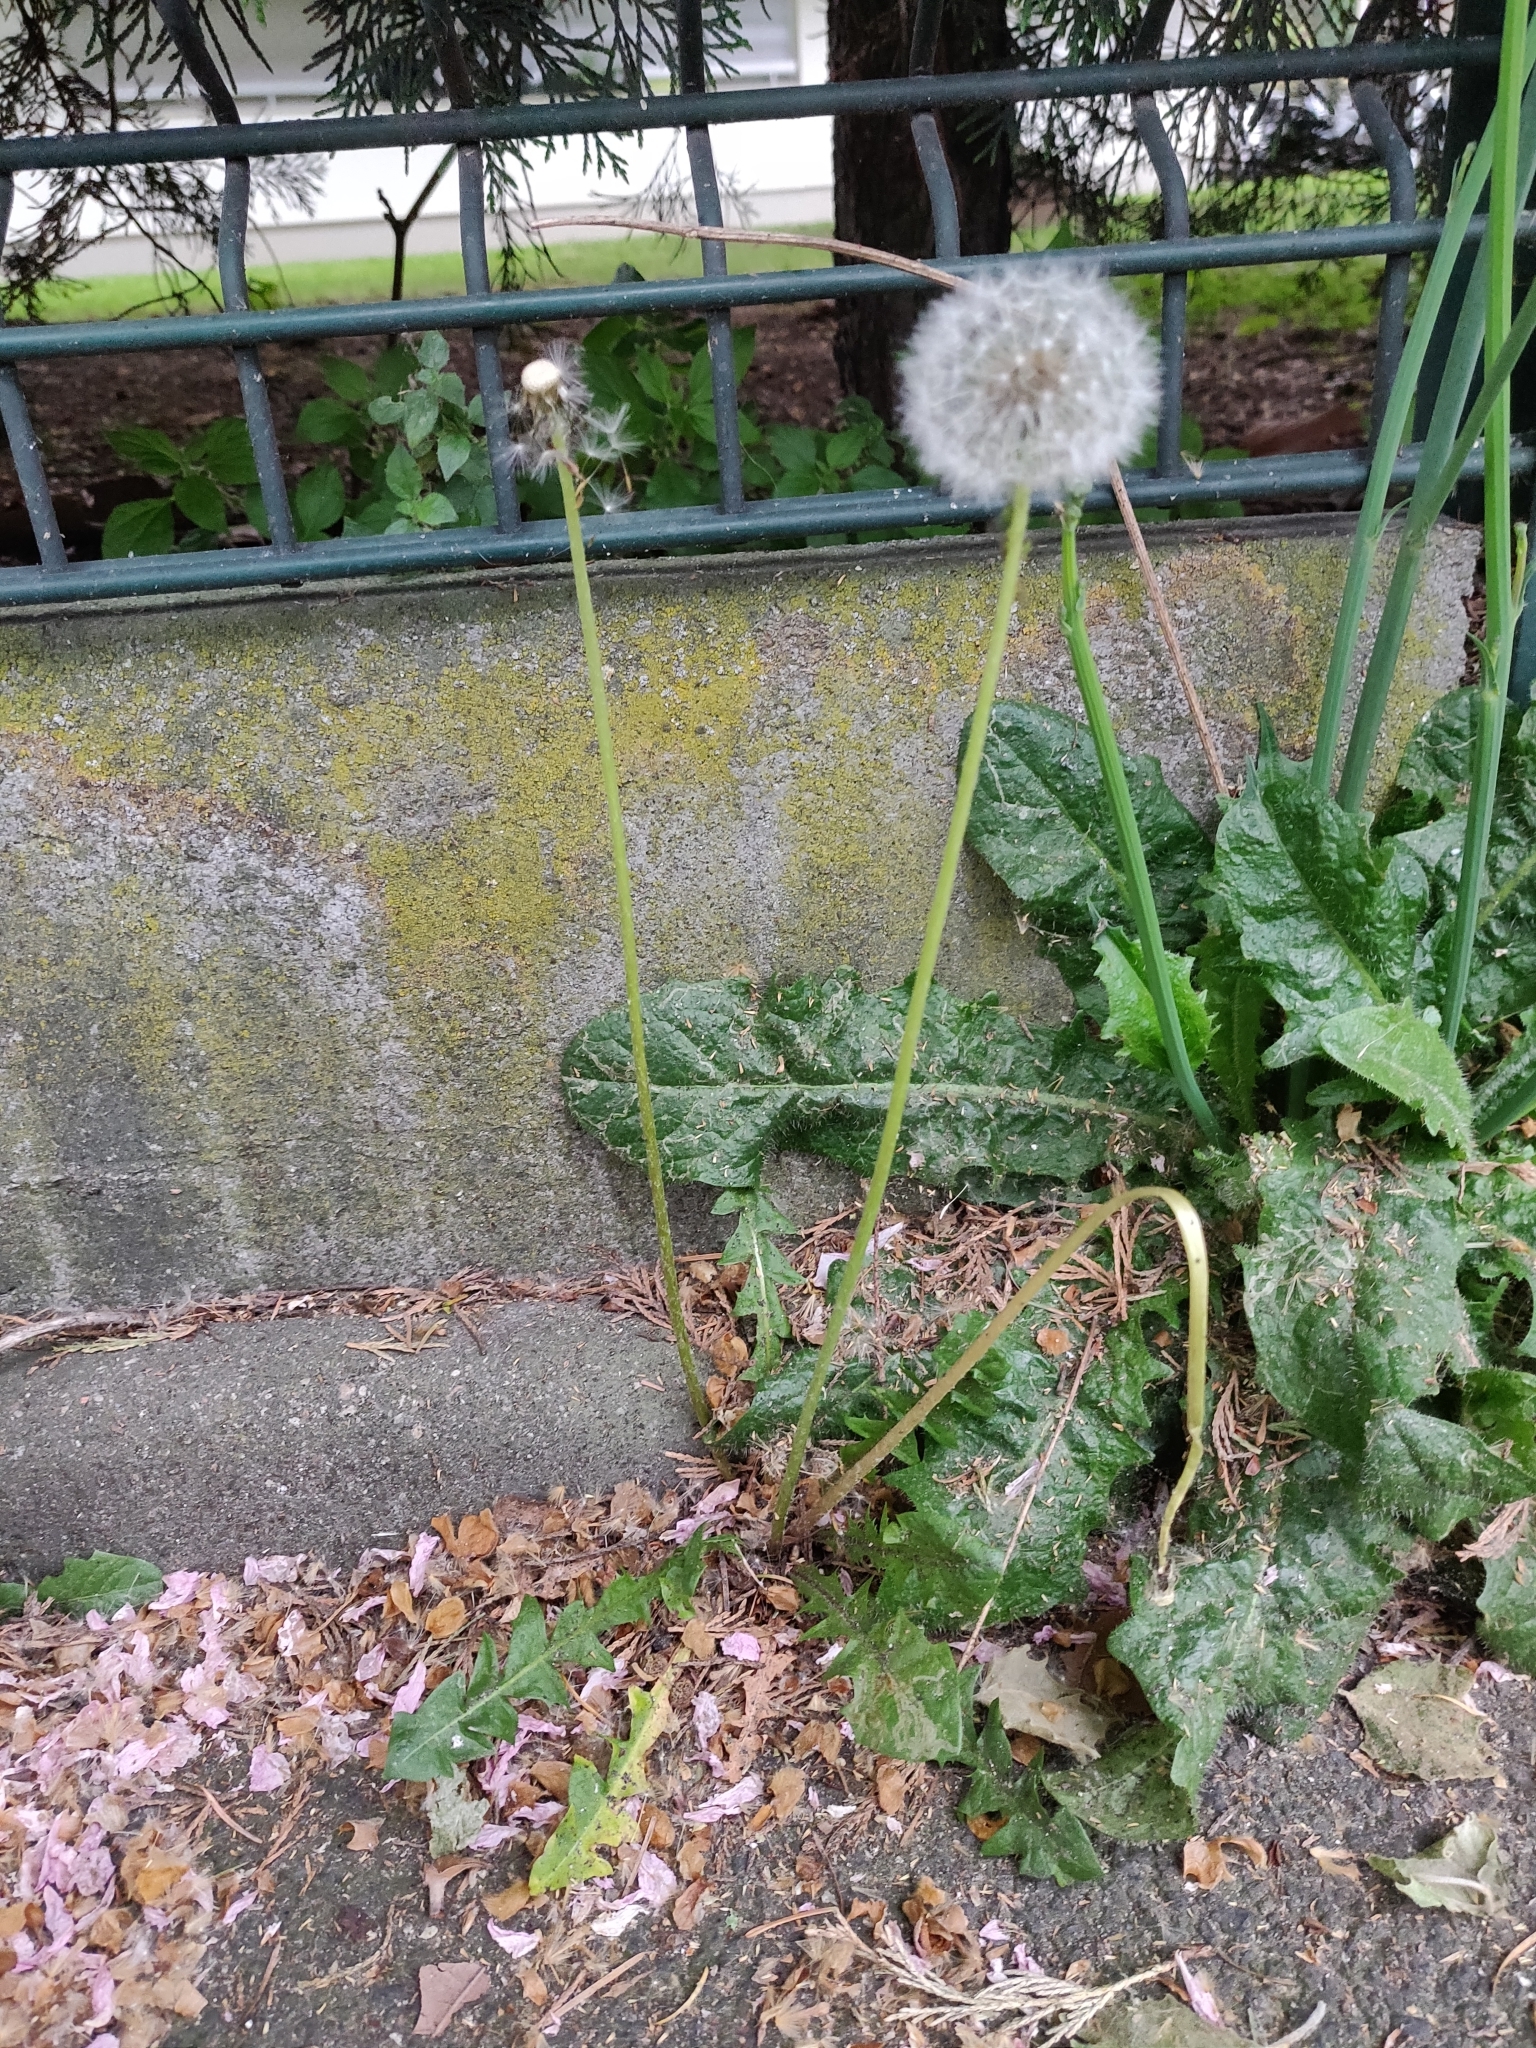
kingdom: Plantae
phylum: Tracheophyta
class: Magnoliopsida
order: Asterales
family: Asteraceae
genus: Taraxacum
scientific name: Taraxacum
